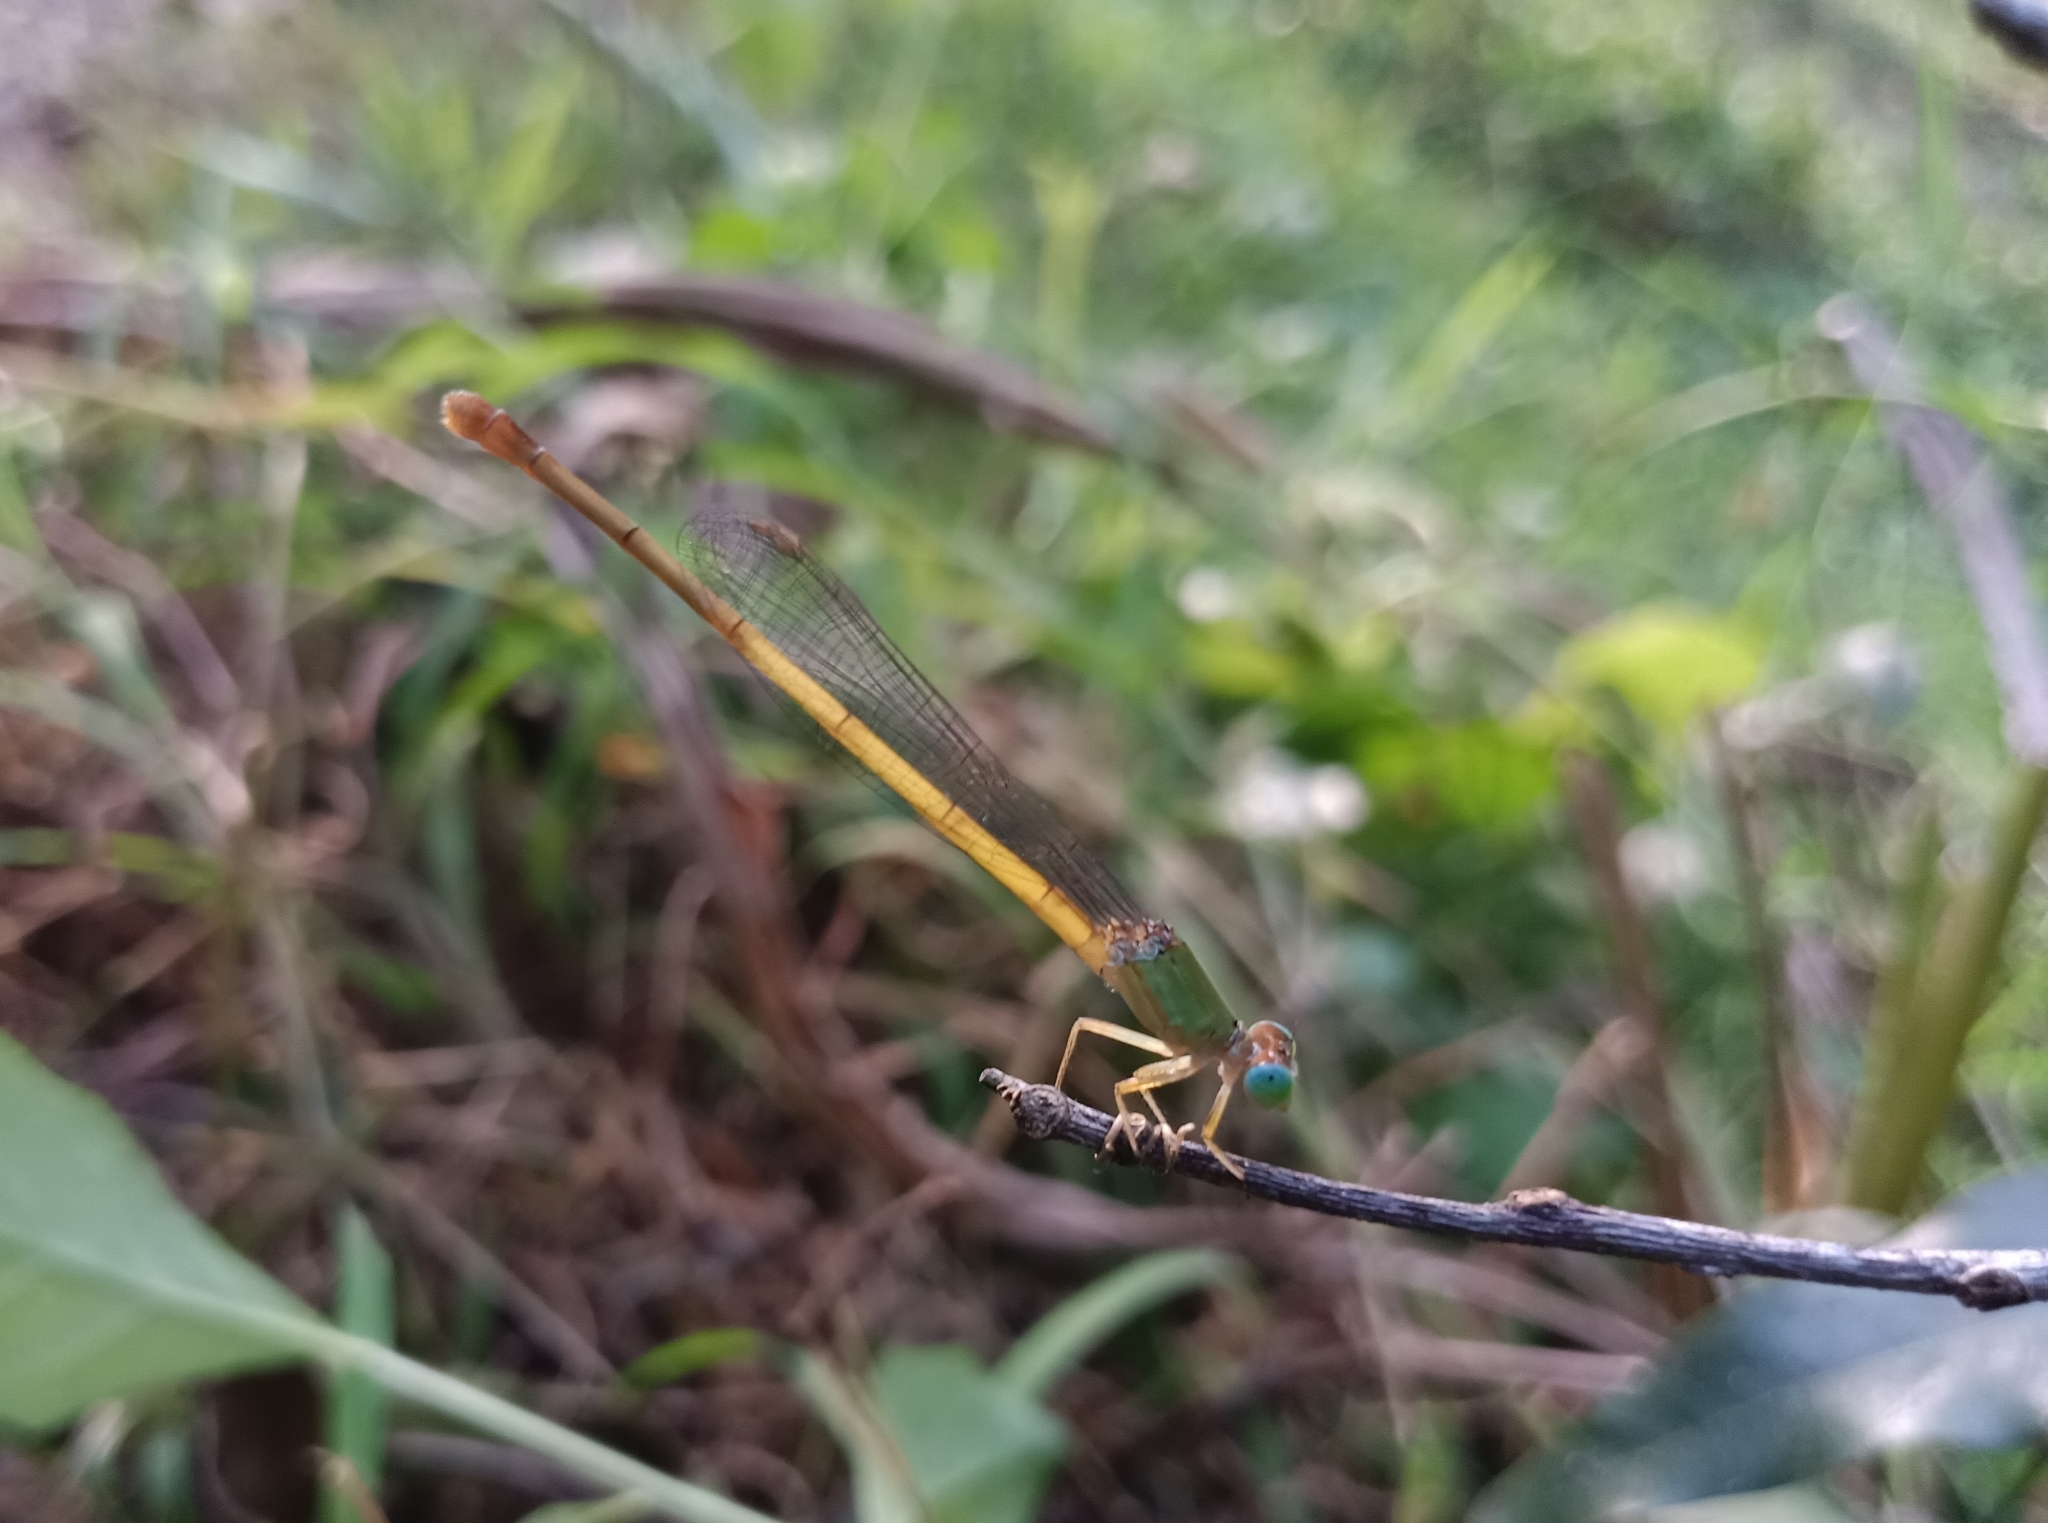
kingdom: Animalia
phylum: Arthropoda
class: Insecta
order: Odonata
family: Coenagrionidae
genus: Ceriagrion
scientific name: Ceriagrion coromandelianum
